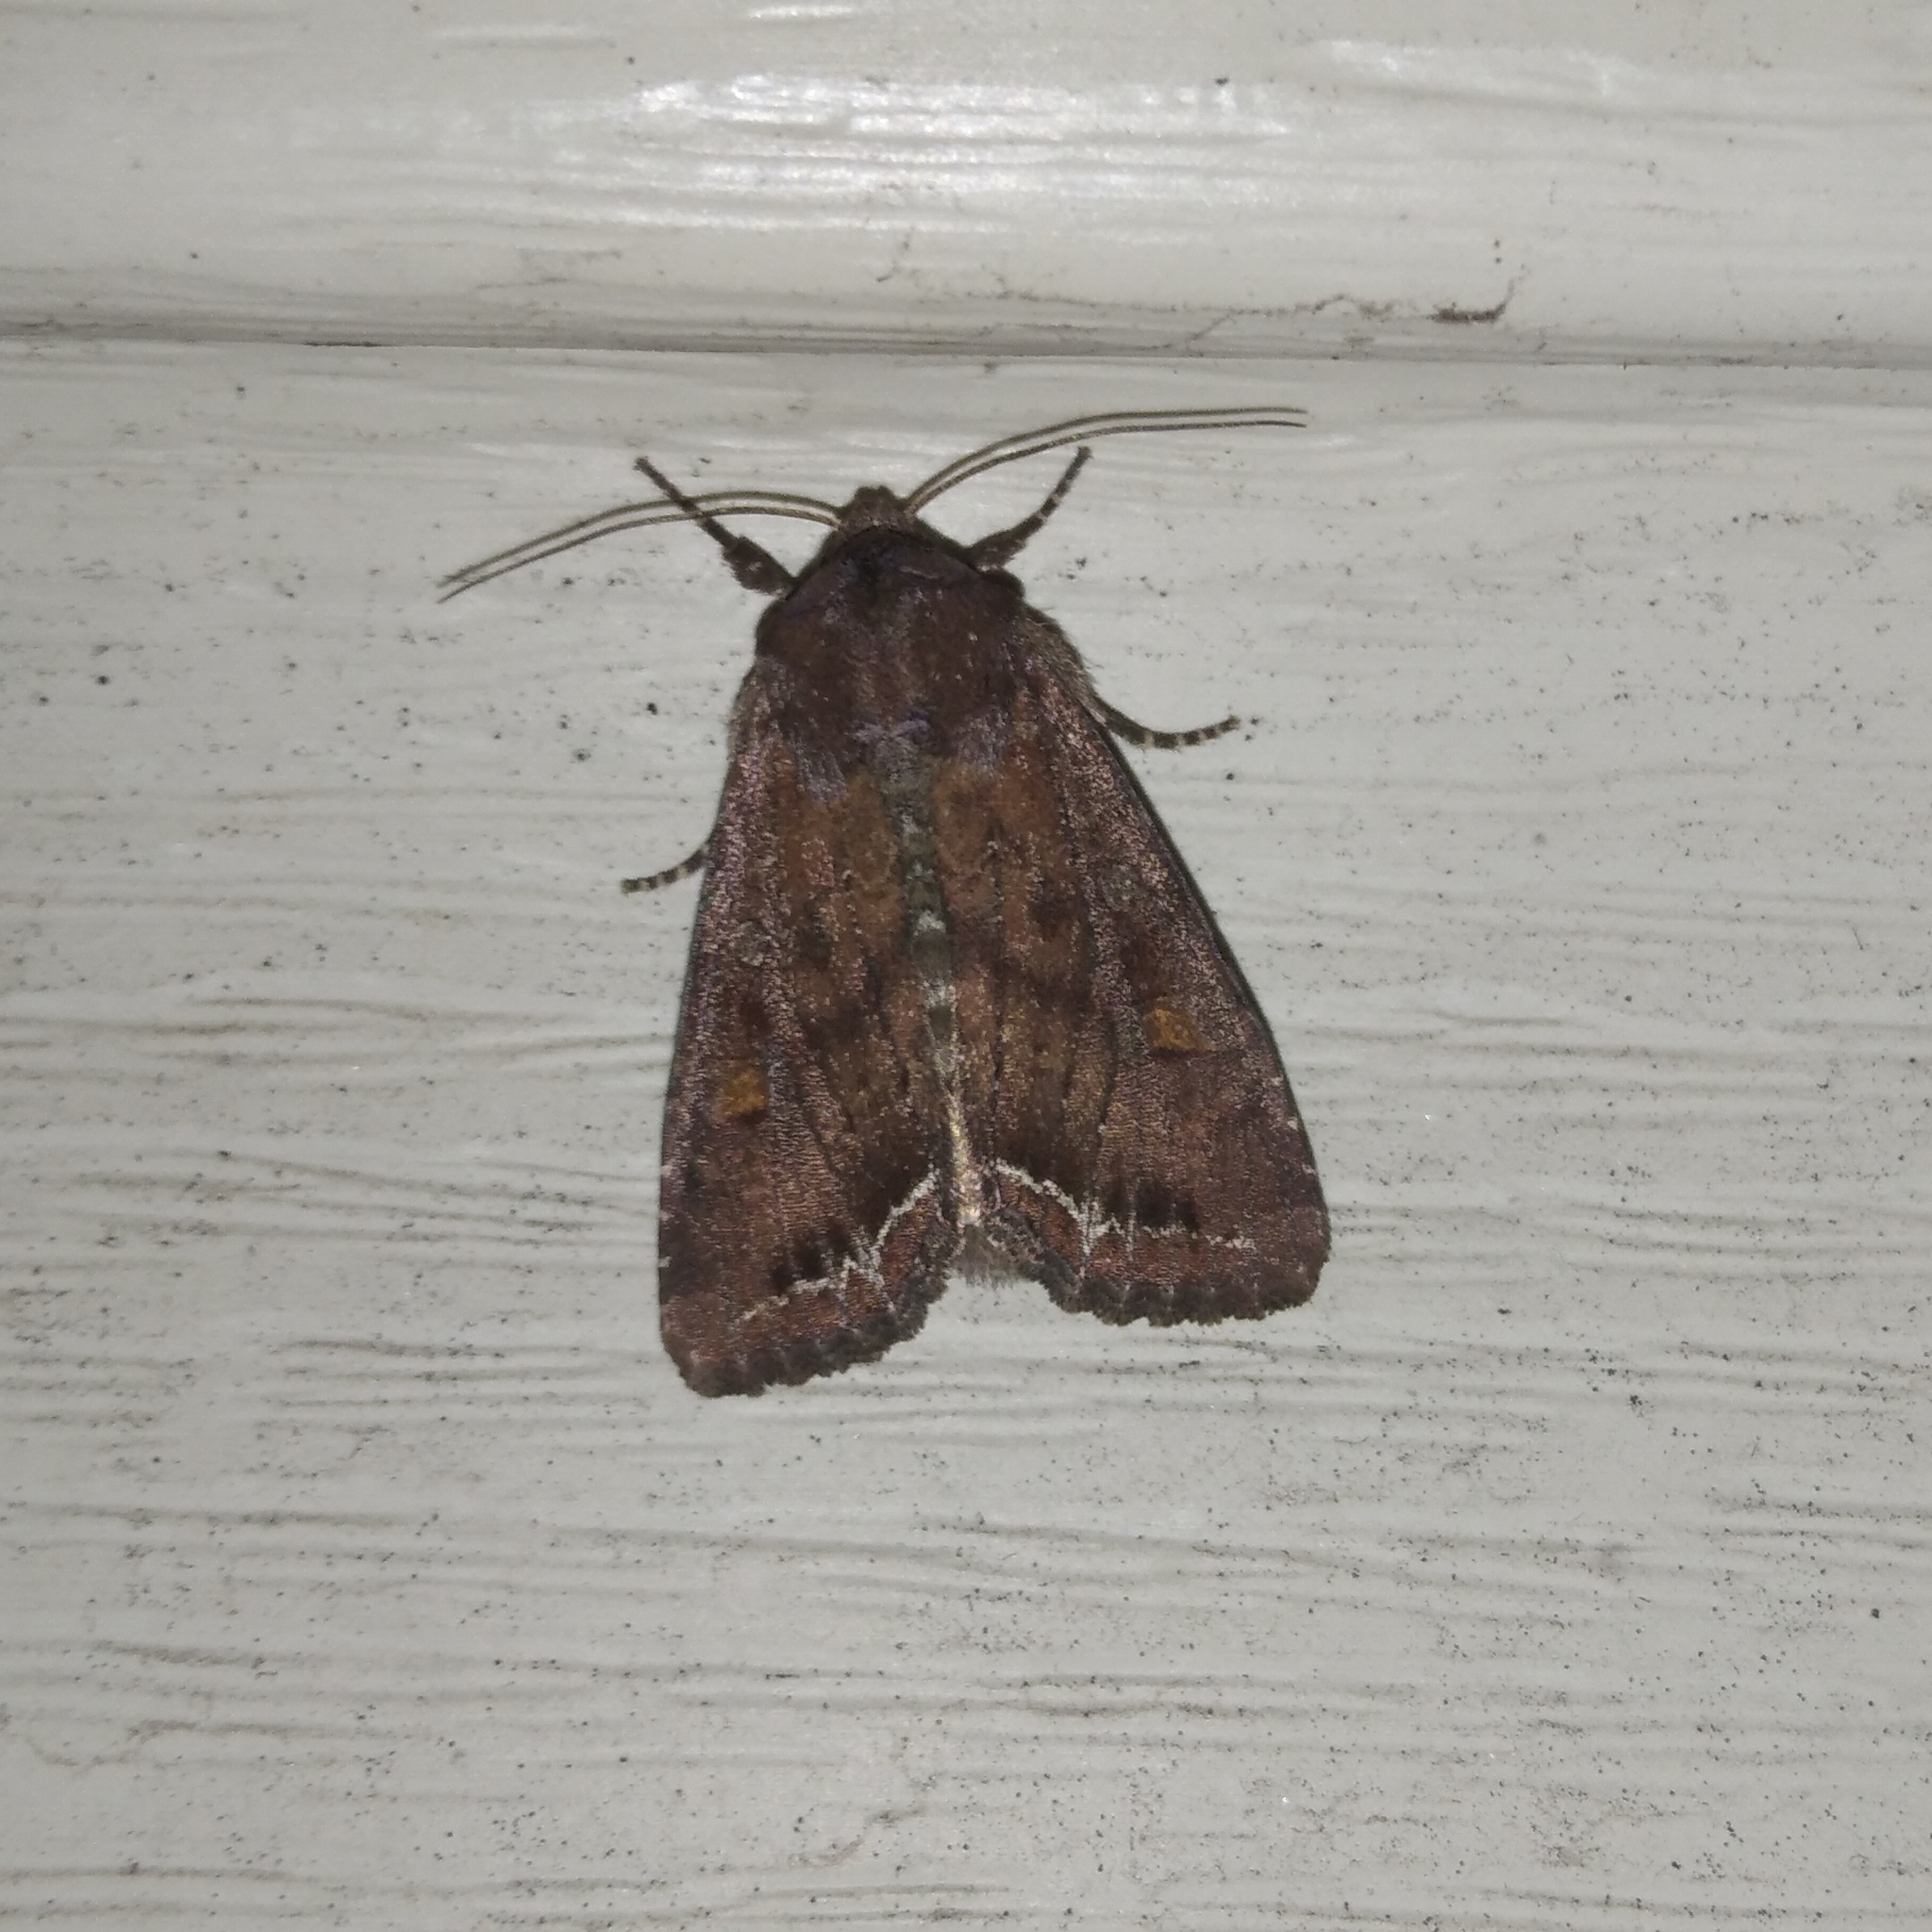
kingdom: Animalia
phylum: Arthropoda
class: Insecta
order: Lepidoptera
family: Noctuidae
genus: Lacanobia
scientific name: Lacanobia oleracea
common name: Bright-line brown-eye
